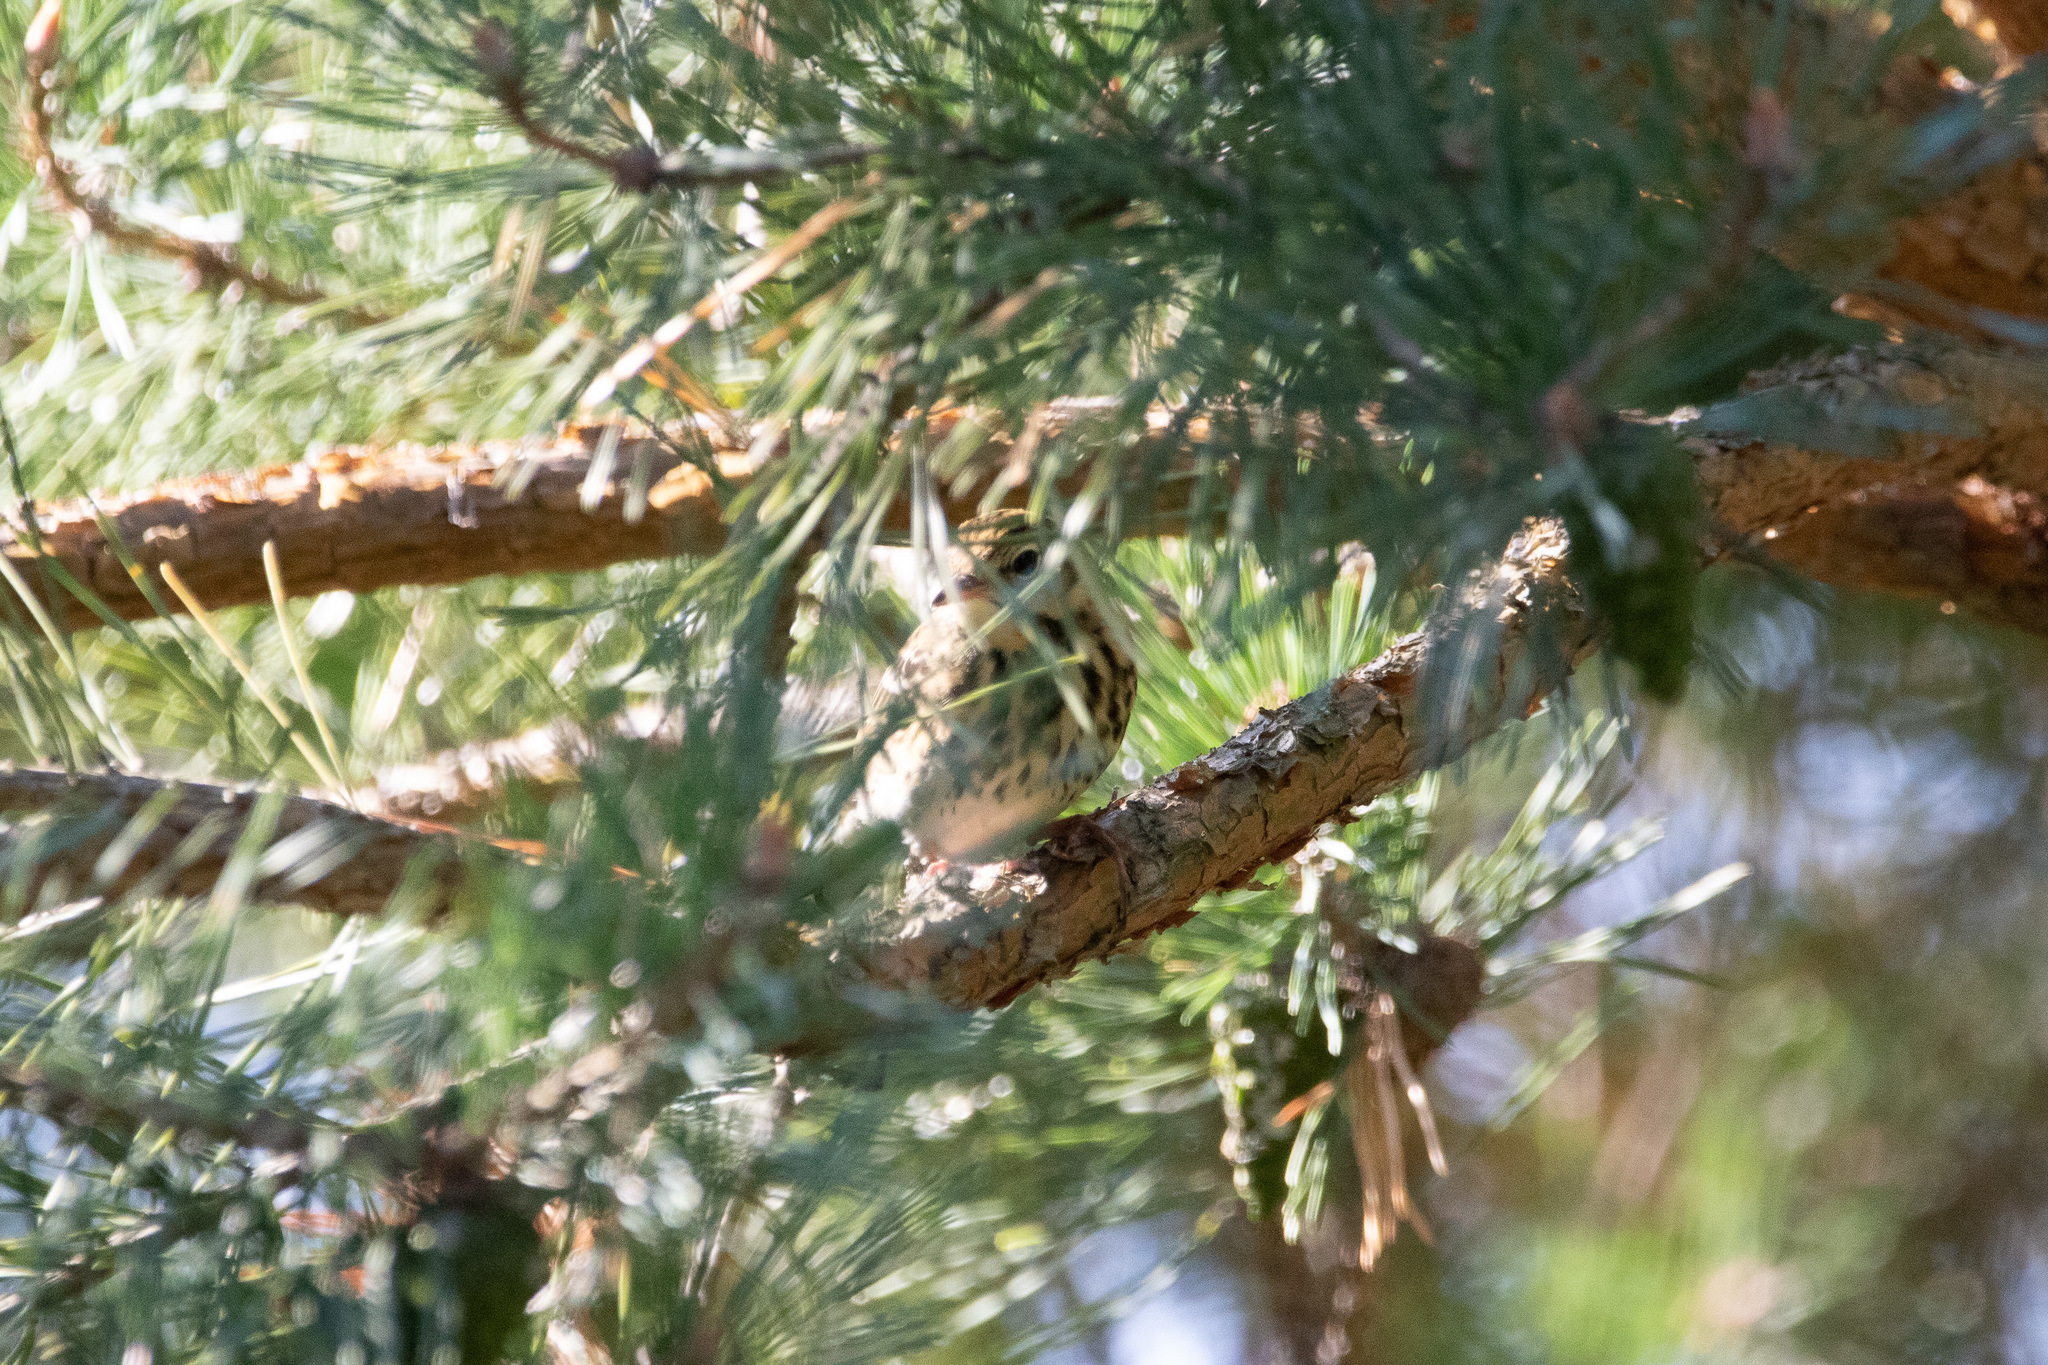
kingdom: Animalia
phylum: Chordata
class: Aves
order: Passeriformes
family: Motacillidae
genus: Anthus
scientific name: Anthus trivialis
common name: Tree pipit
